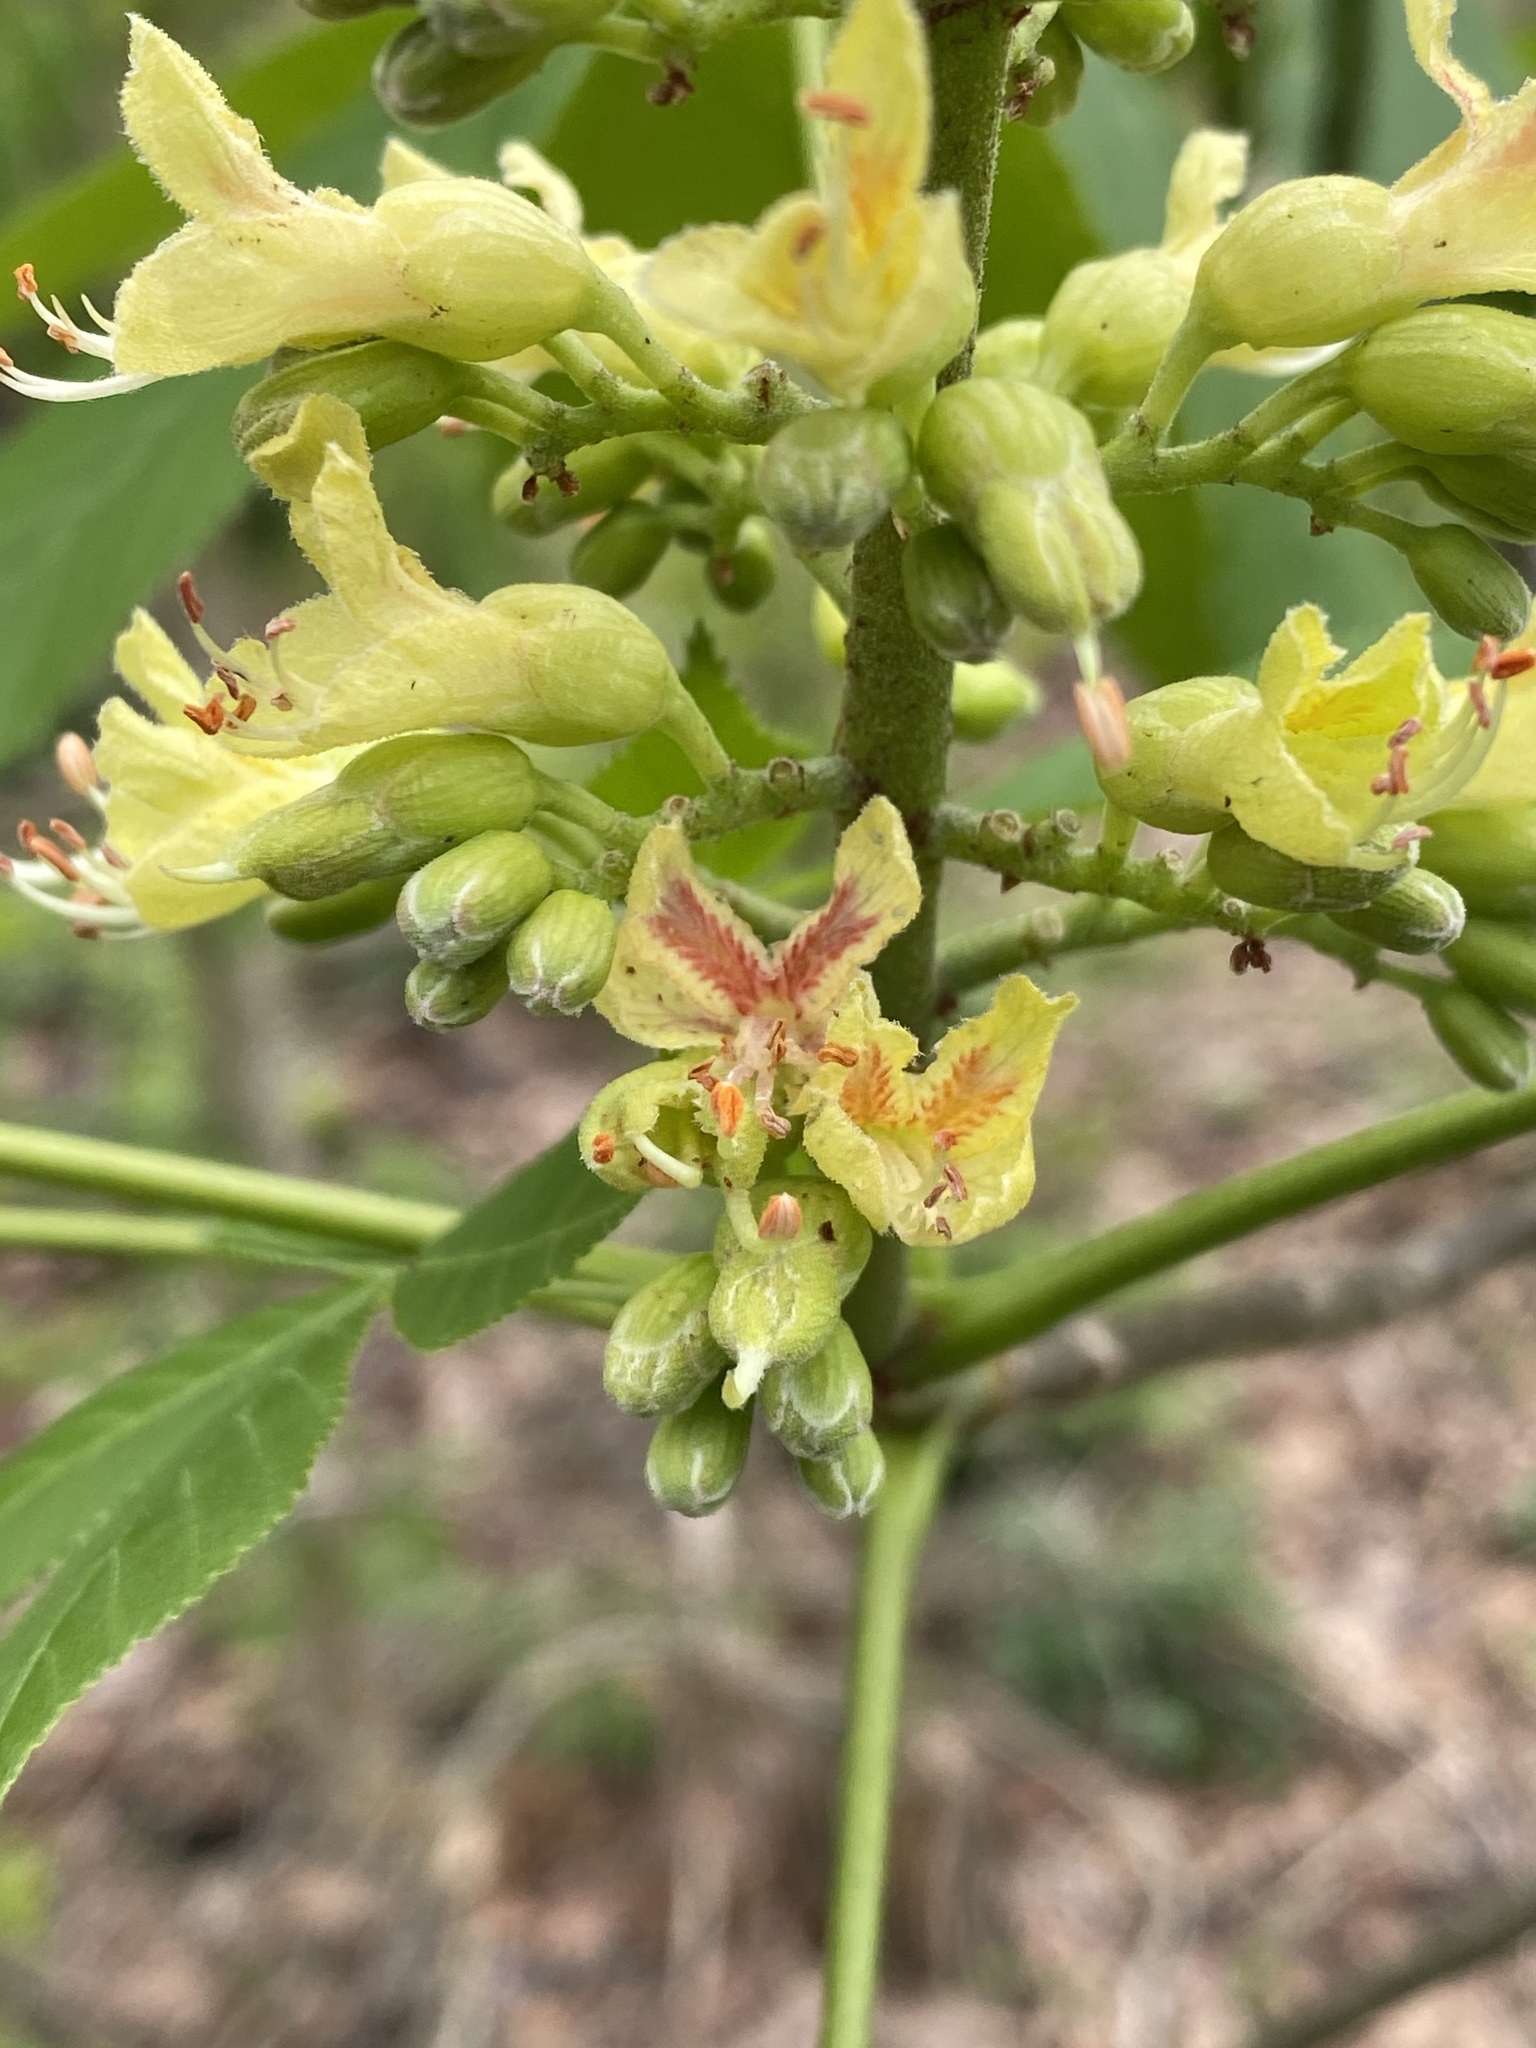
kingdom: Plantae
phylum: Tracheophyta
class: Magnoliopsida
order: Sapindales
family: Sapindaceae
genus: Aesculus
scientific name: Aesculus glabra
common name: Ohio buckeye
